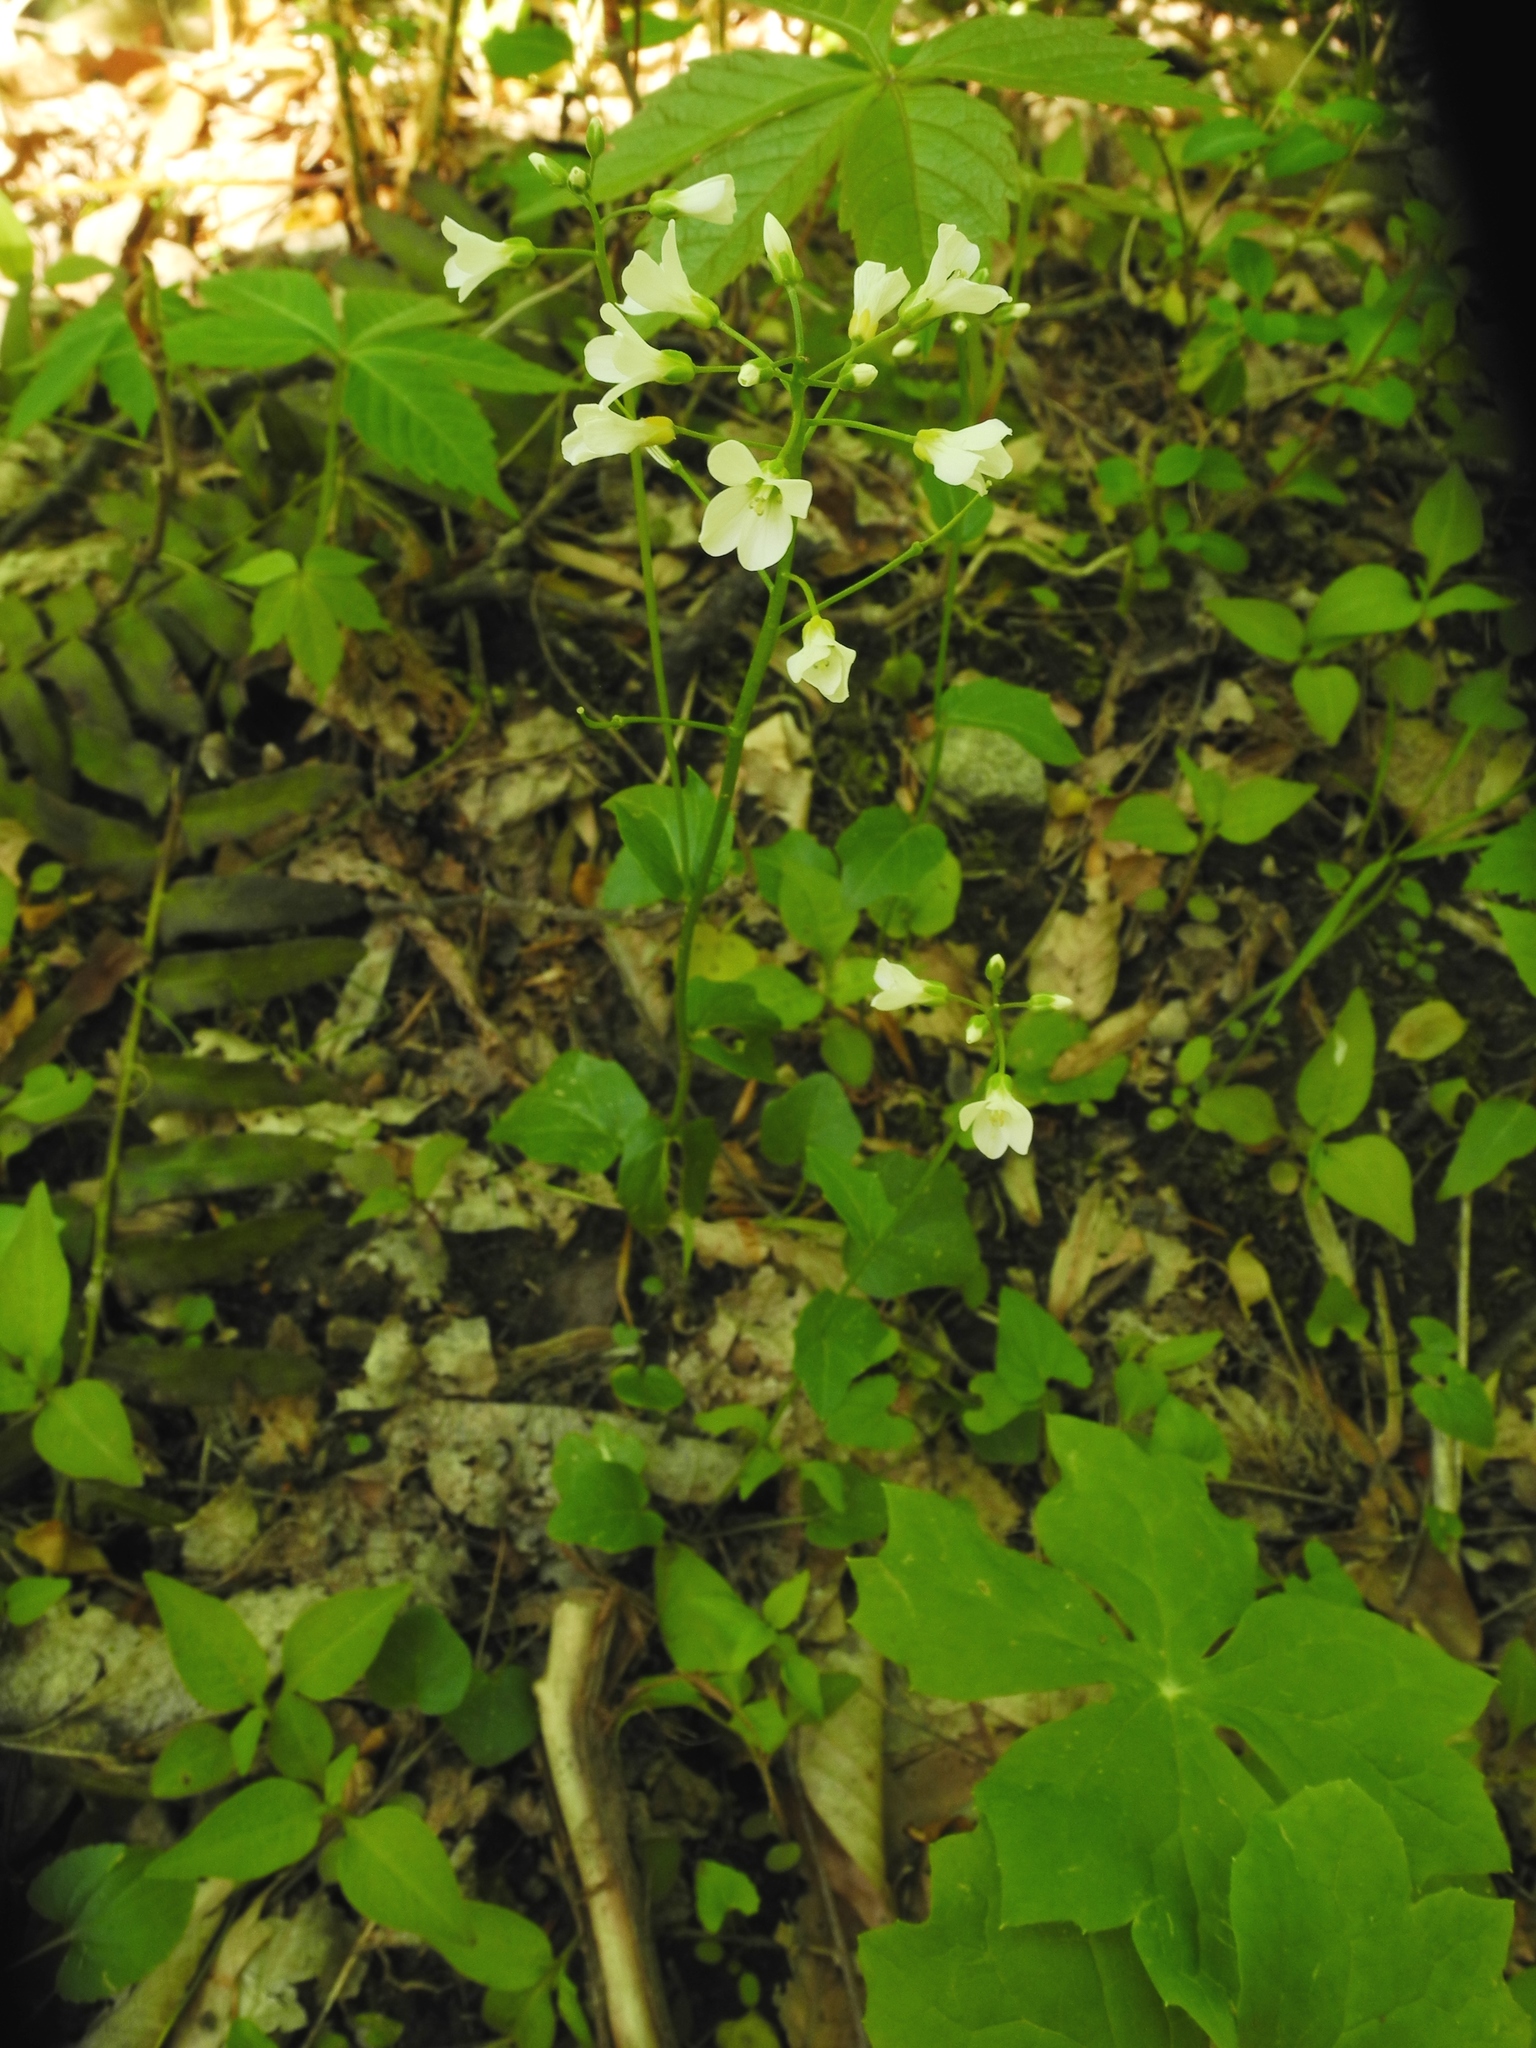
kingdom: Plantae
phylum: Tracheophyta
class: Magnoliopsida
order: Brassicales
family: Brassicaceae
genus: Cardamine
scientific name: Cardamine bulbosa
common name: Spring cress
